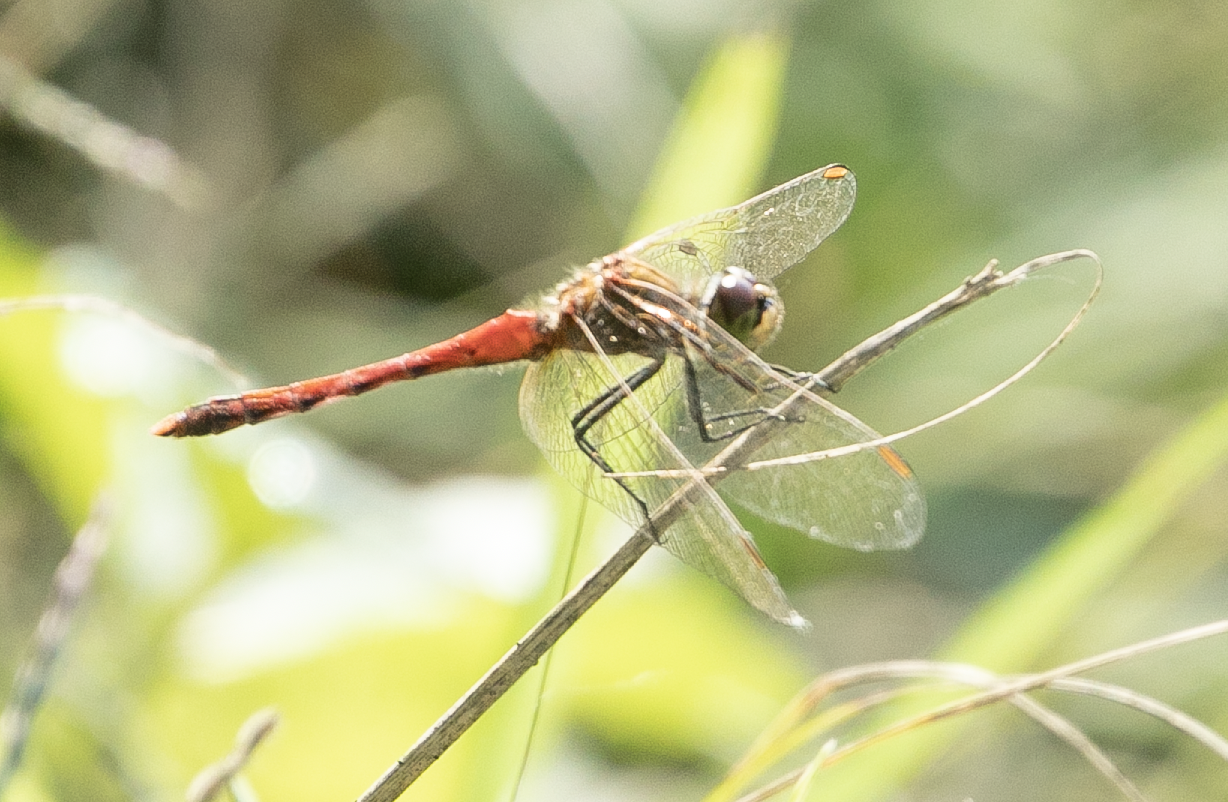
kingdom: Animalia
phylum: Arthropoda
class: Insecta
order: Odonata
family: Libellulidae
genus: Sympetrum
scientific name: Sympetrum depressiusculum
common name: Spotted darter
